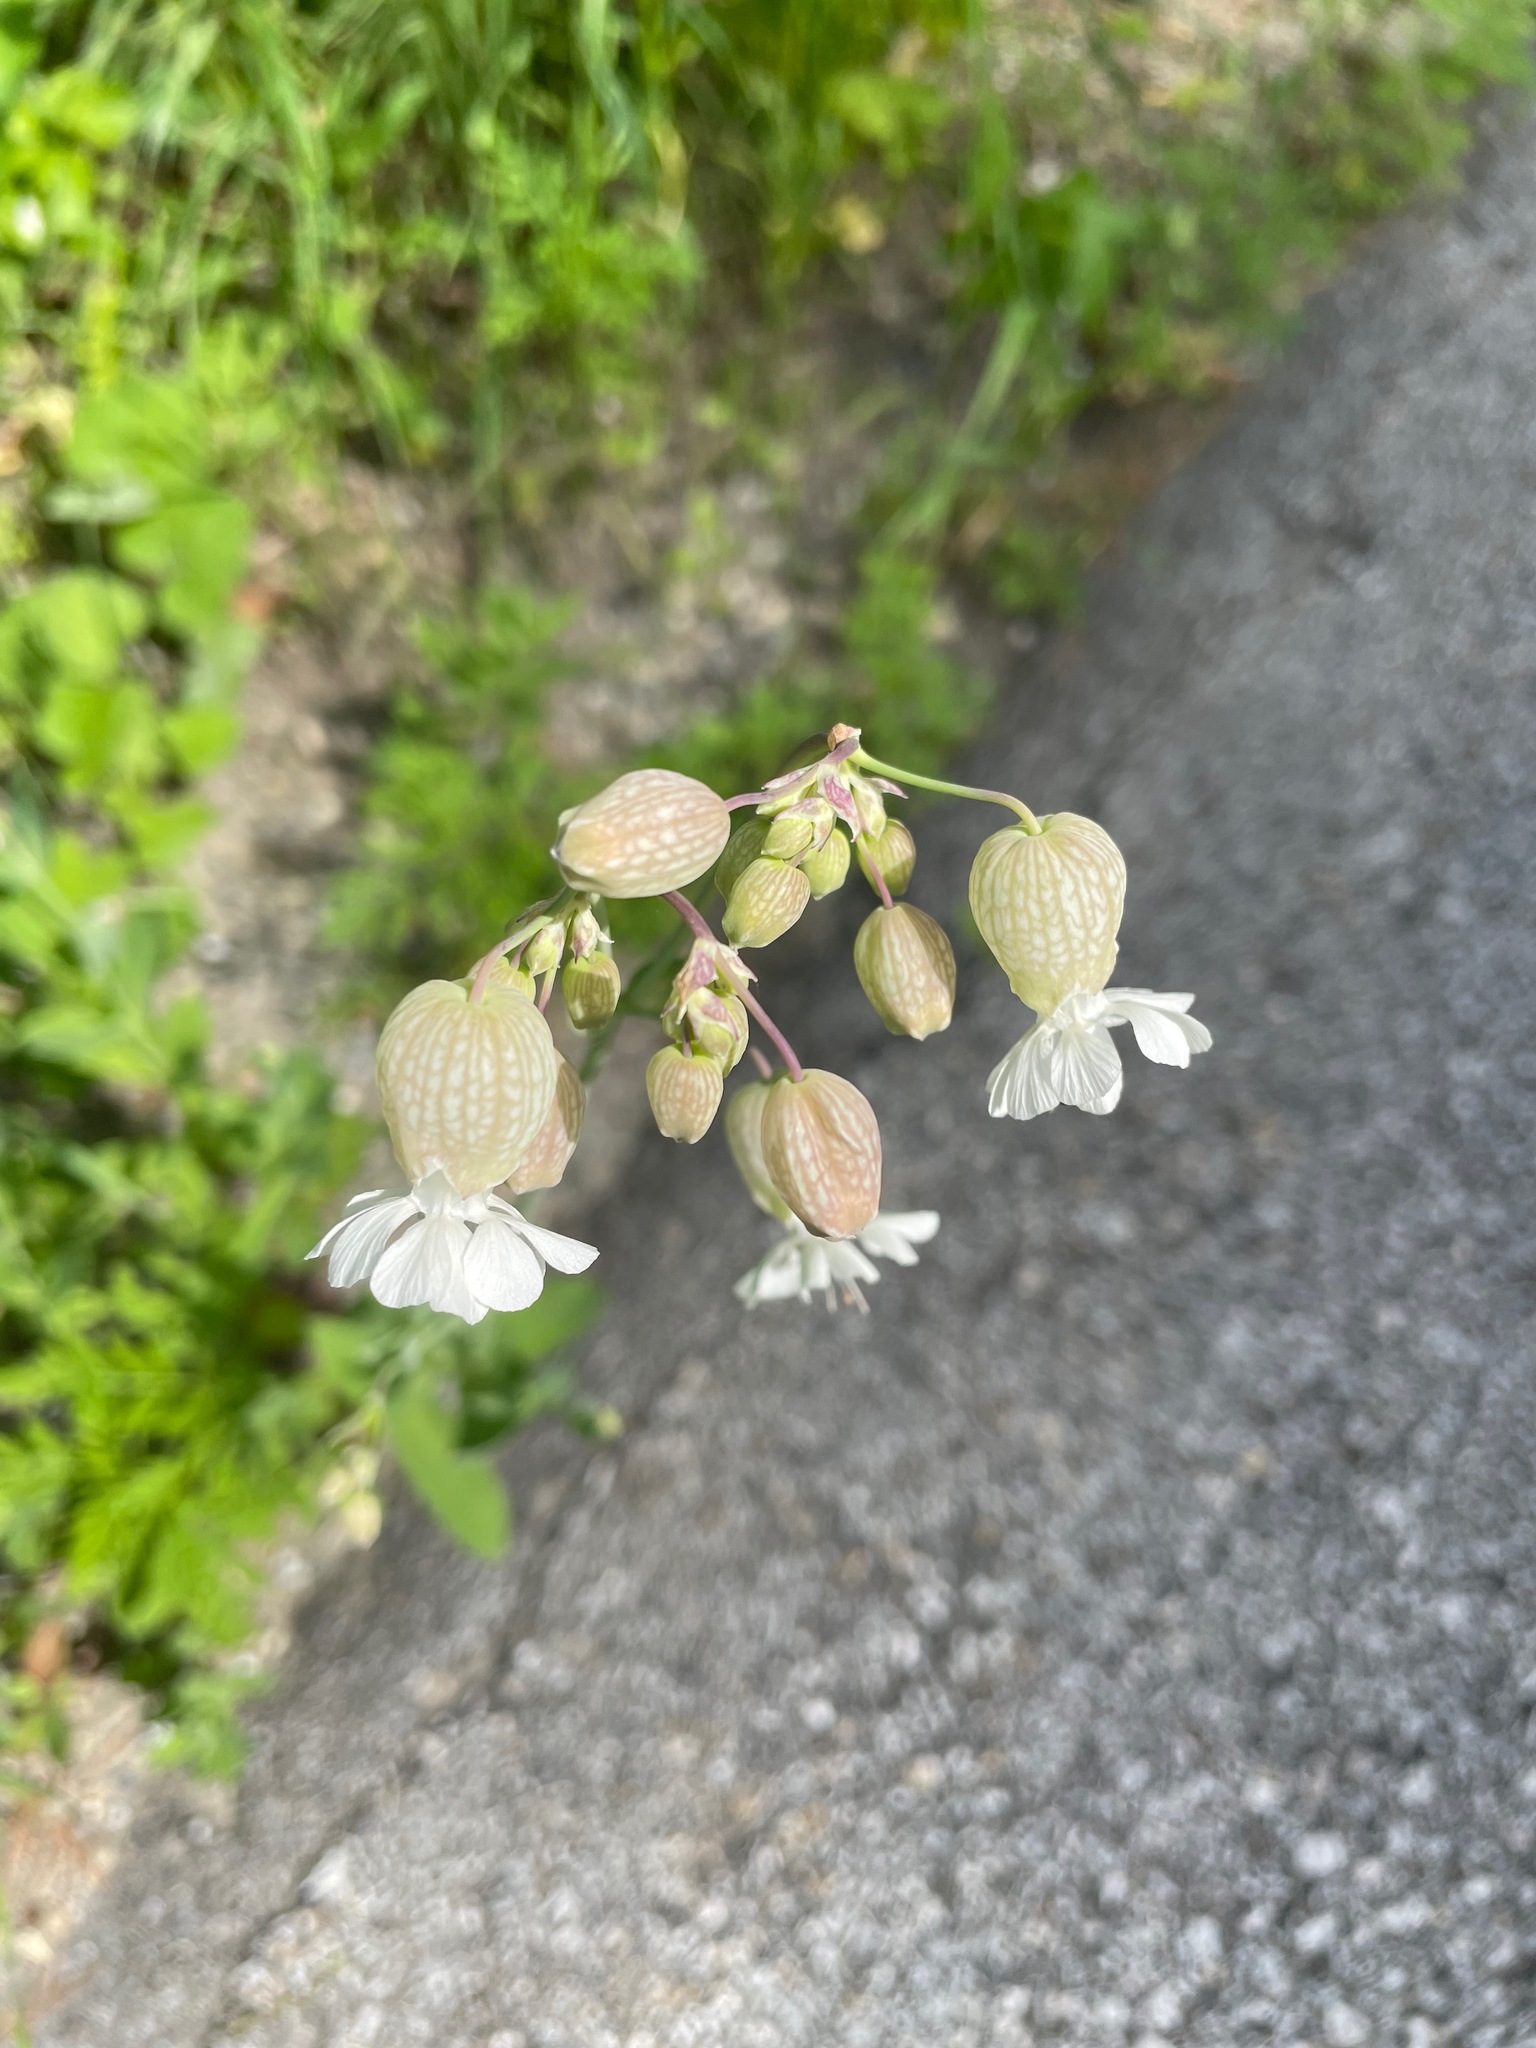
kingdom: Plantae
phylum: Tracheophyta
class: Magnoliopsida
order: Caryophyllales
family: Caryophyllaceae
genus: Silene
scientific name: Silene vulgaris
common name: Bladder campion
